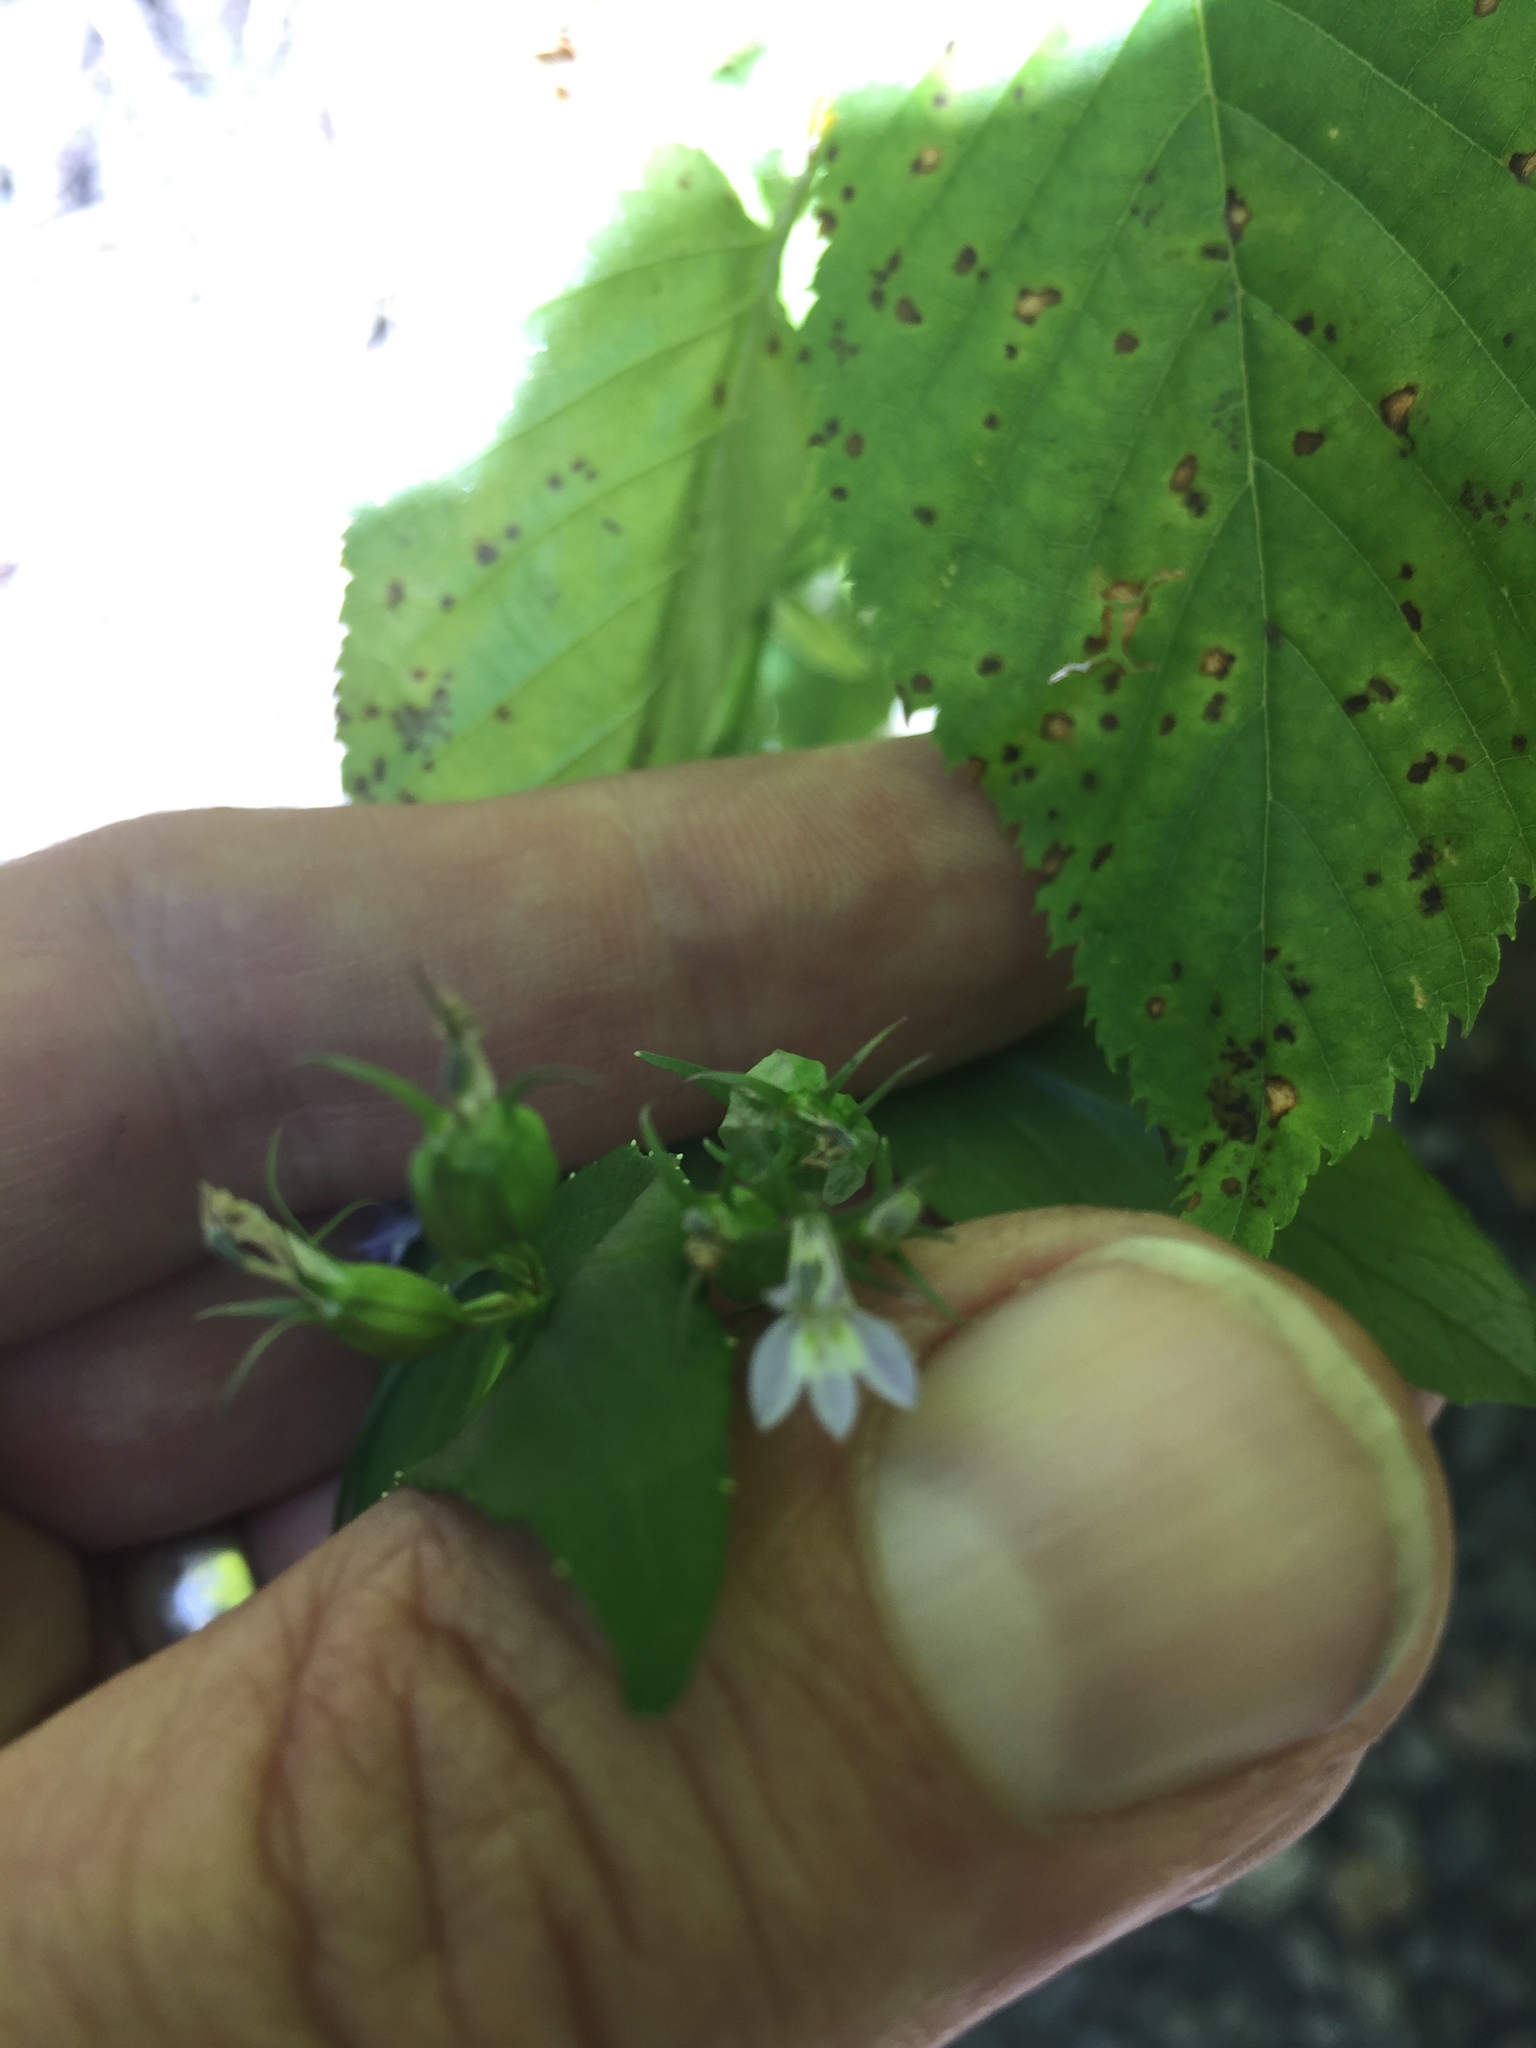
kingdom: Plantae
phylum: Tracheophyta
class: Magnoliopsida
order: Asterales
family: Campanulaceae
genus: Lobelia
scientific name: Lobelia inflata
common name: Indian tobacco
